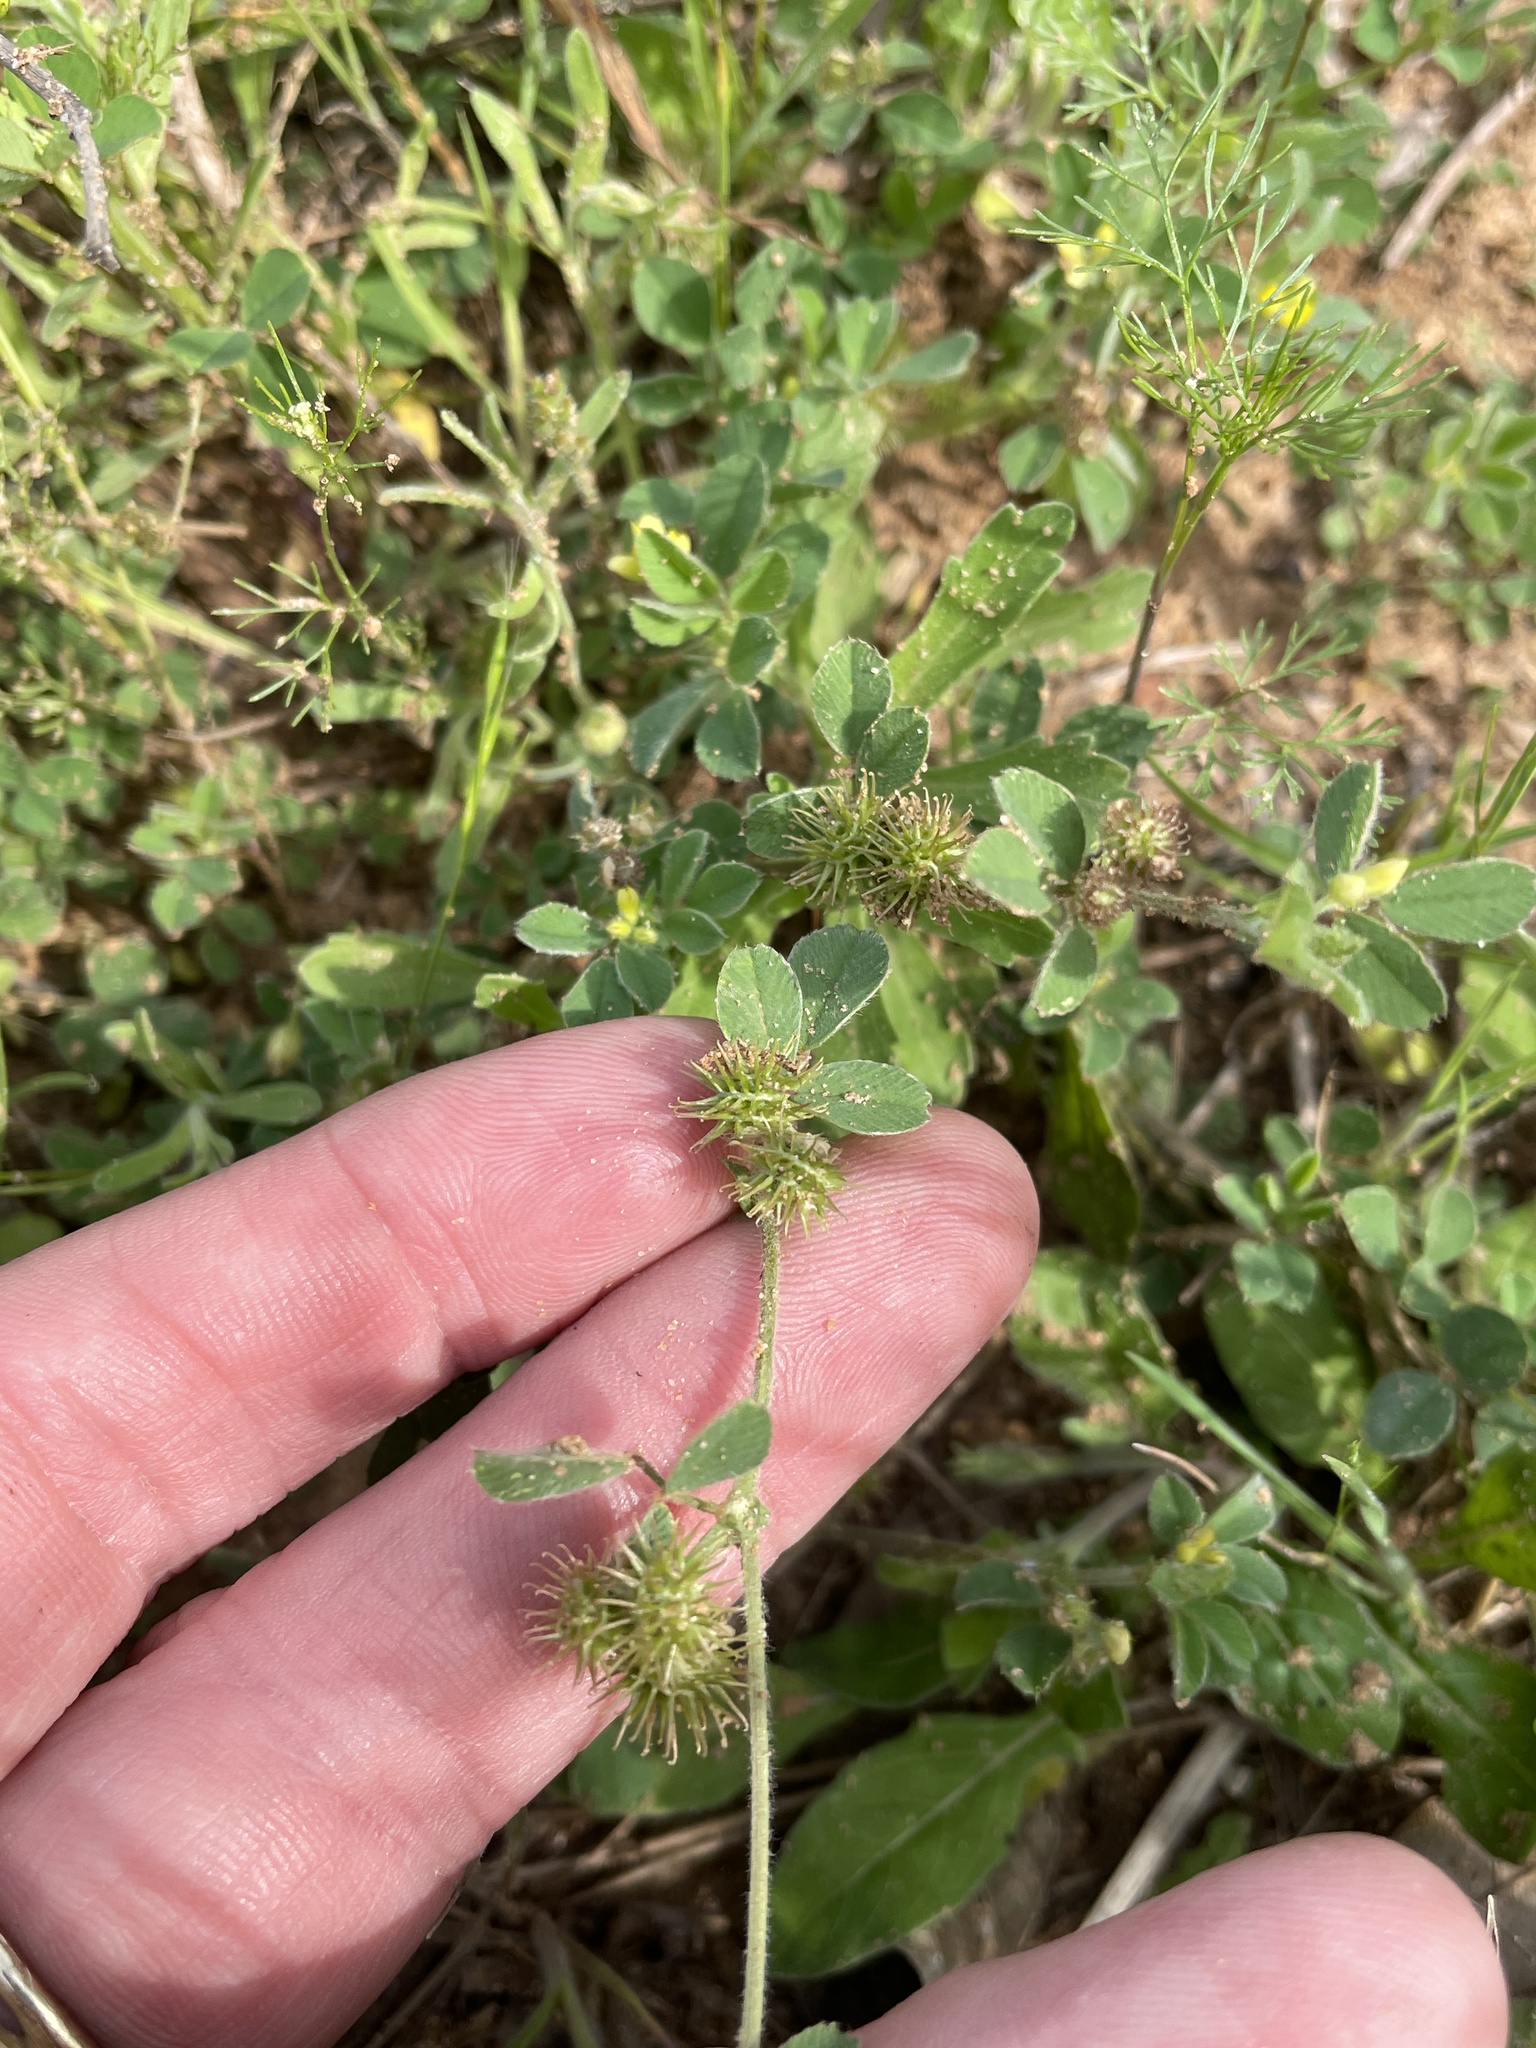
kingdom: Plantae
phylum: Tracheophyta
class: Magnoliopsida
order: Fabales
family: Fabaceae
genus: Medicago
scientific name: Medicago minima
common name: Little bur-clover
